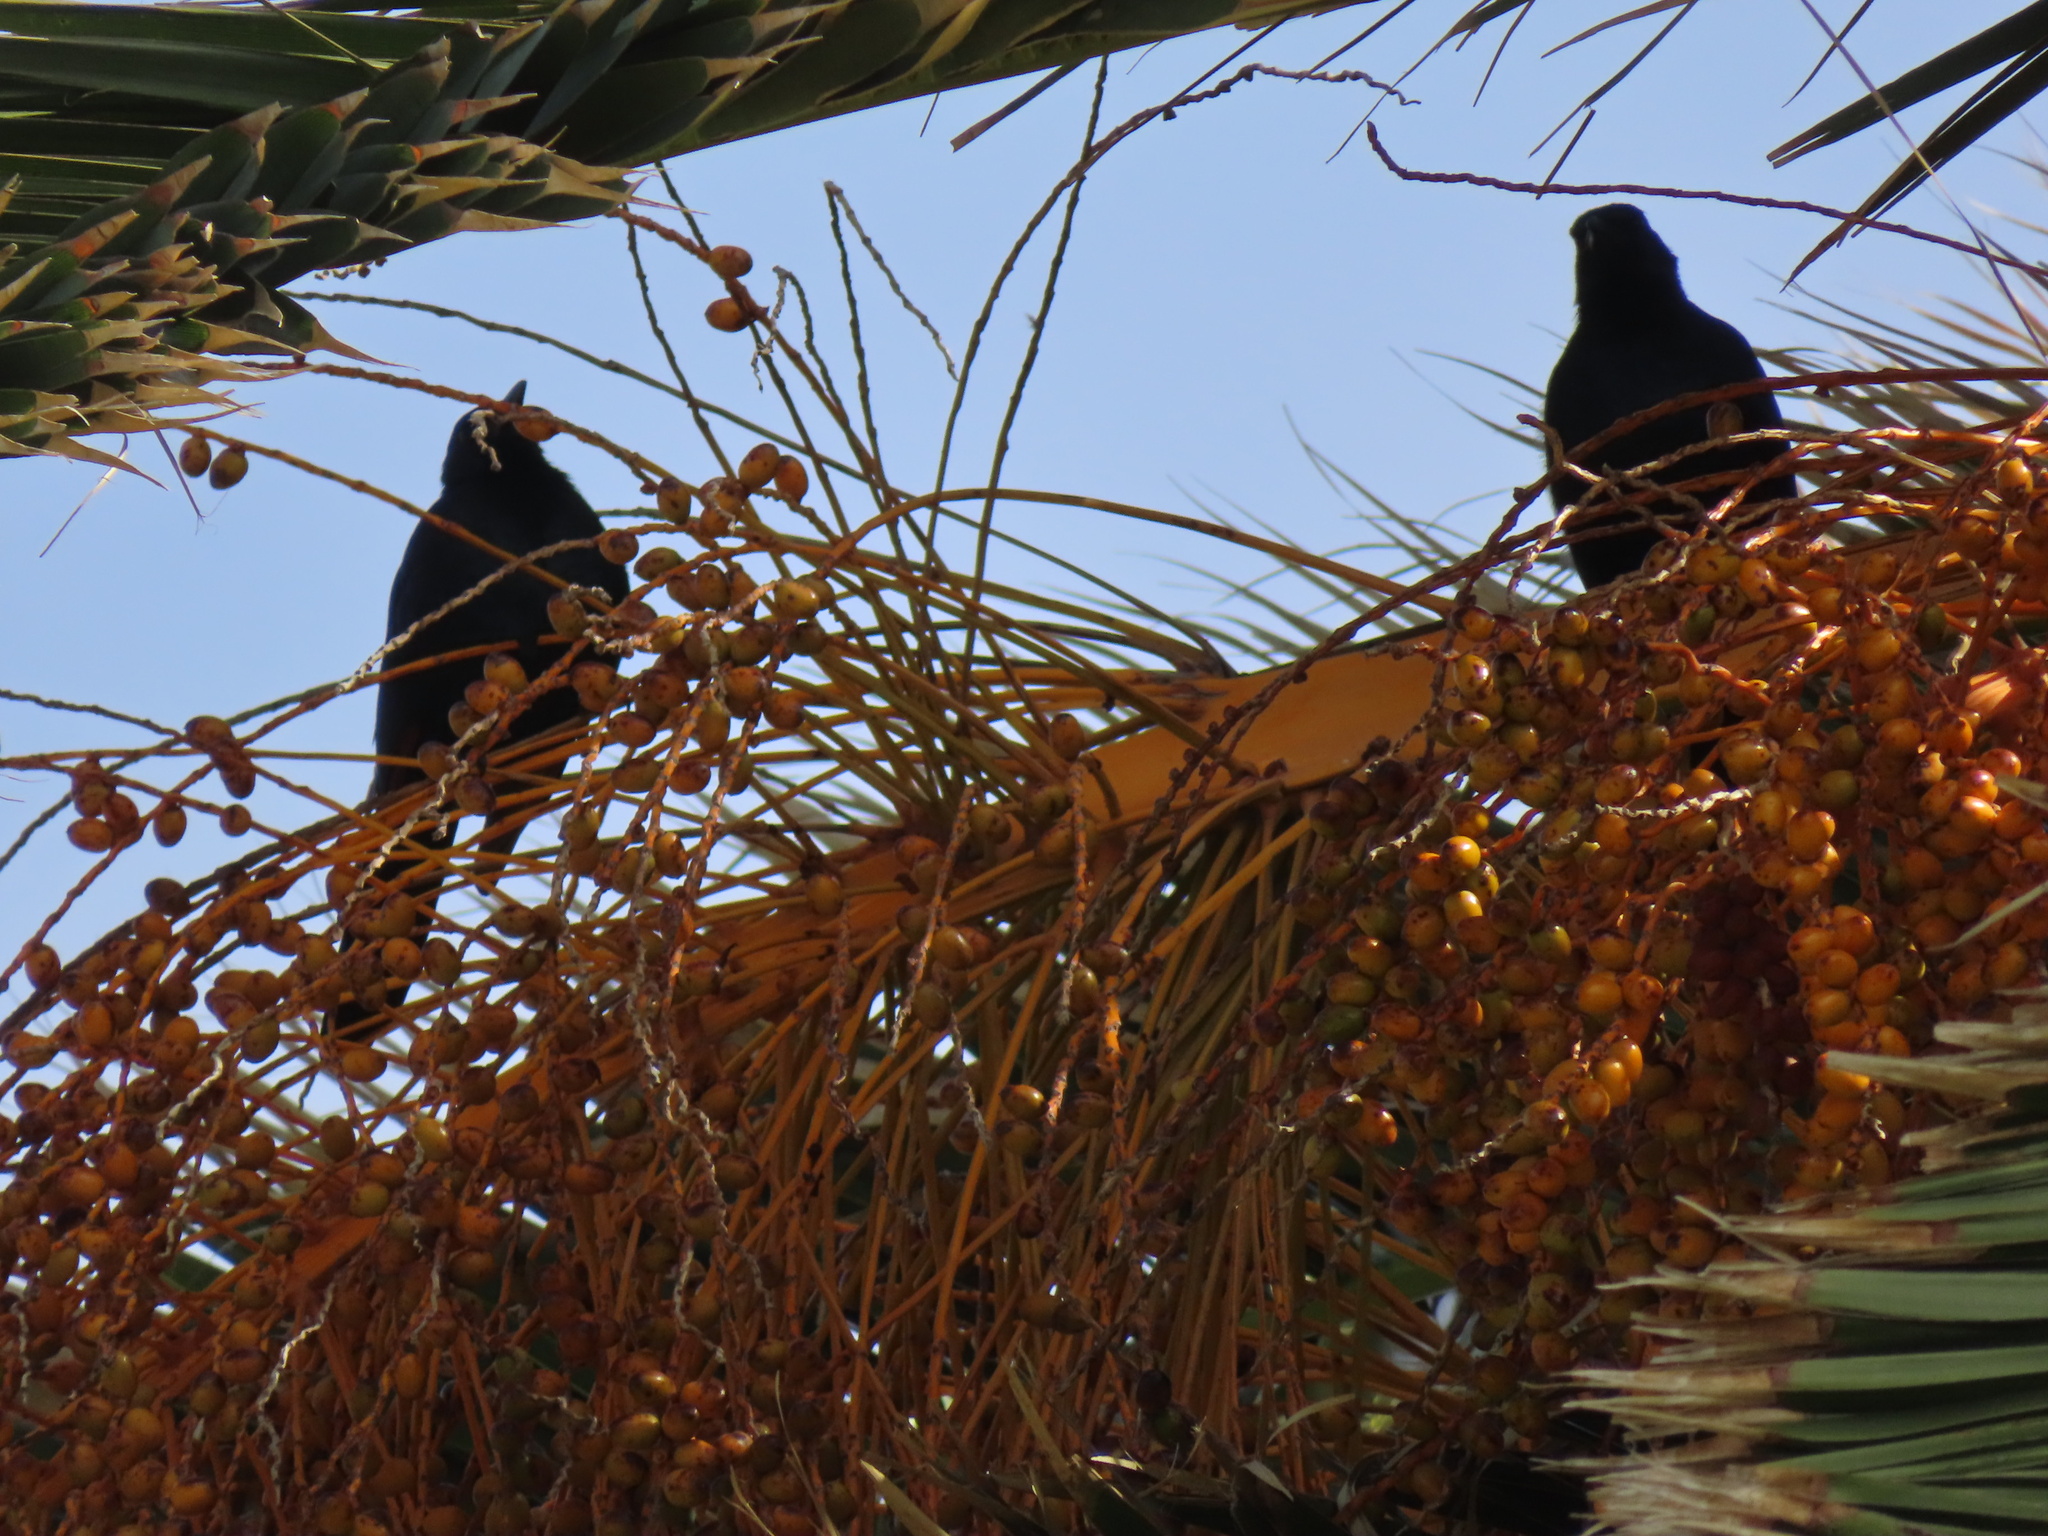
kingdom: Animalia
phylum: Chordata
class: Aves
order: Passeriformes
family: Sturnidae
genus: Onychognathus
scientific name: Onychognathus morio
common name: Red-winged starling
